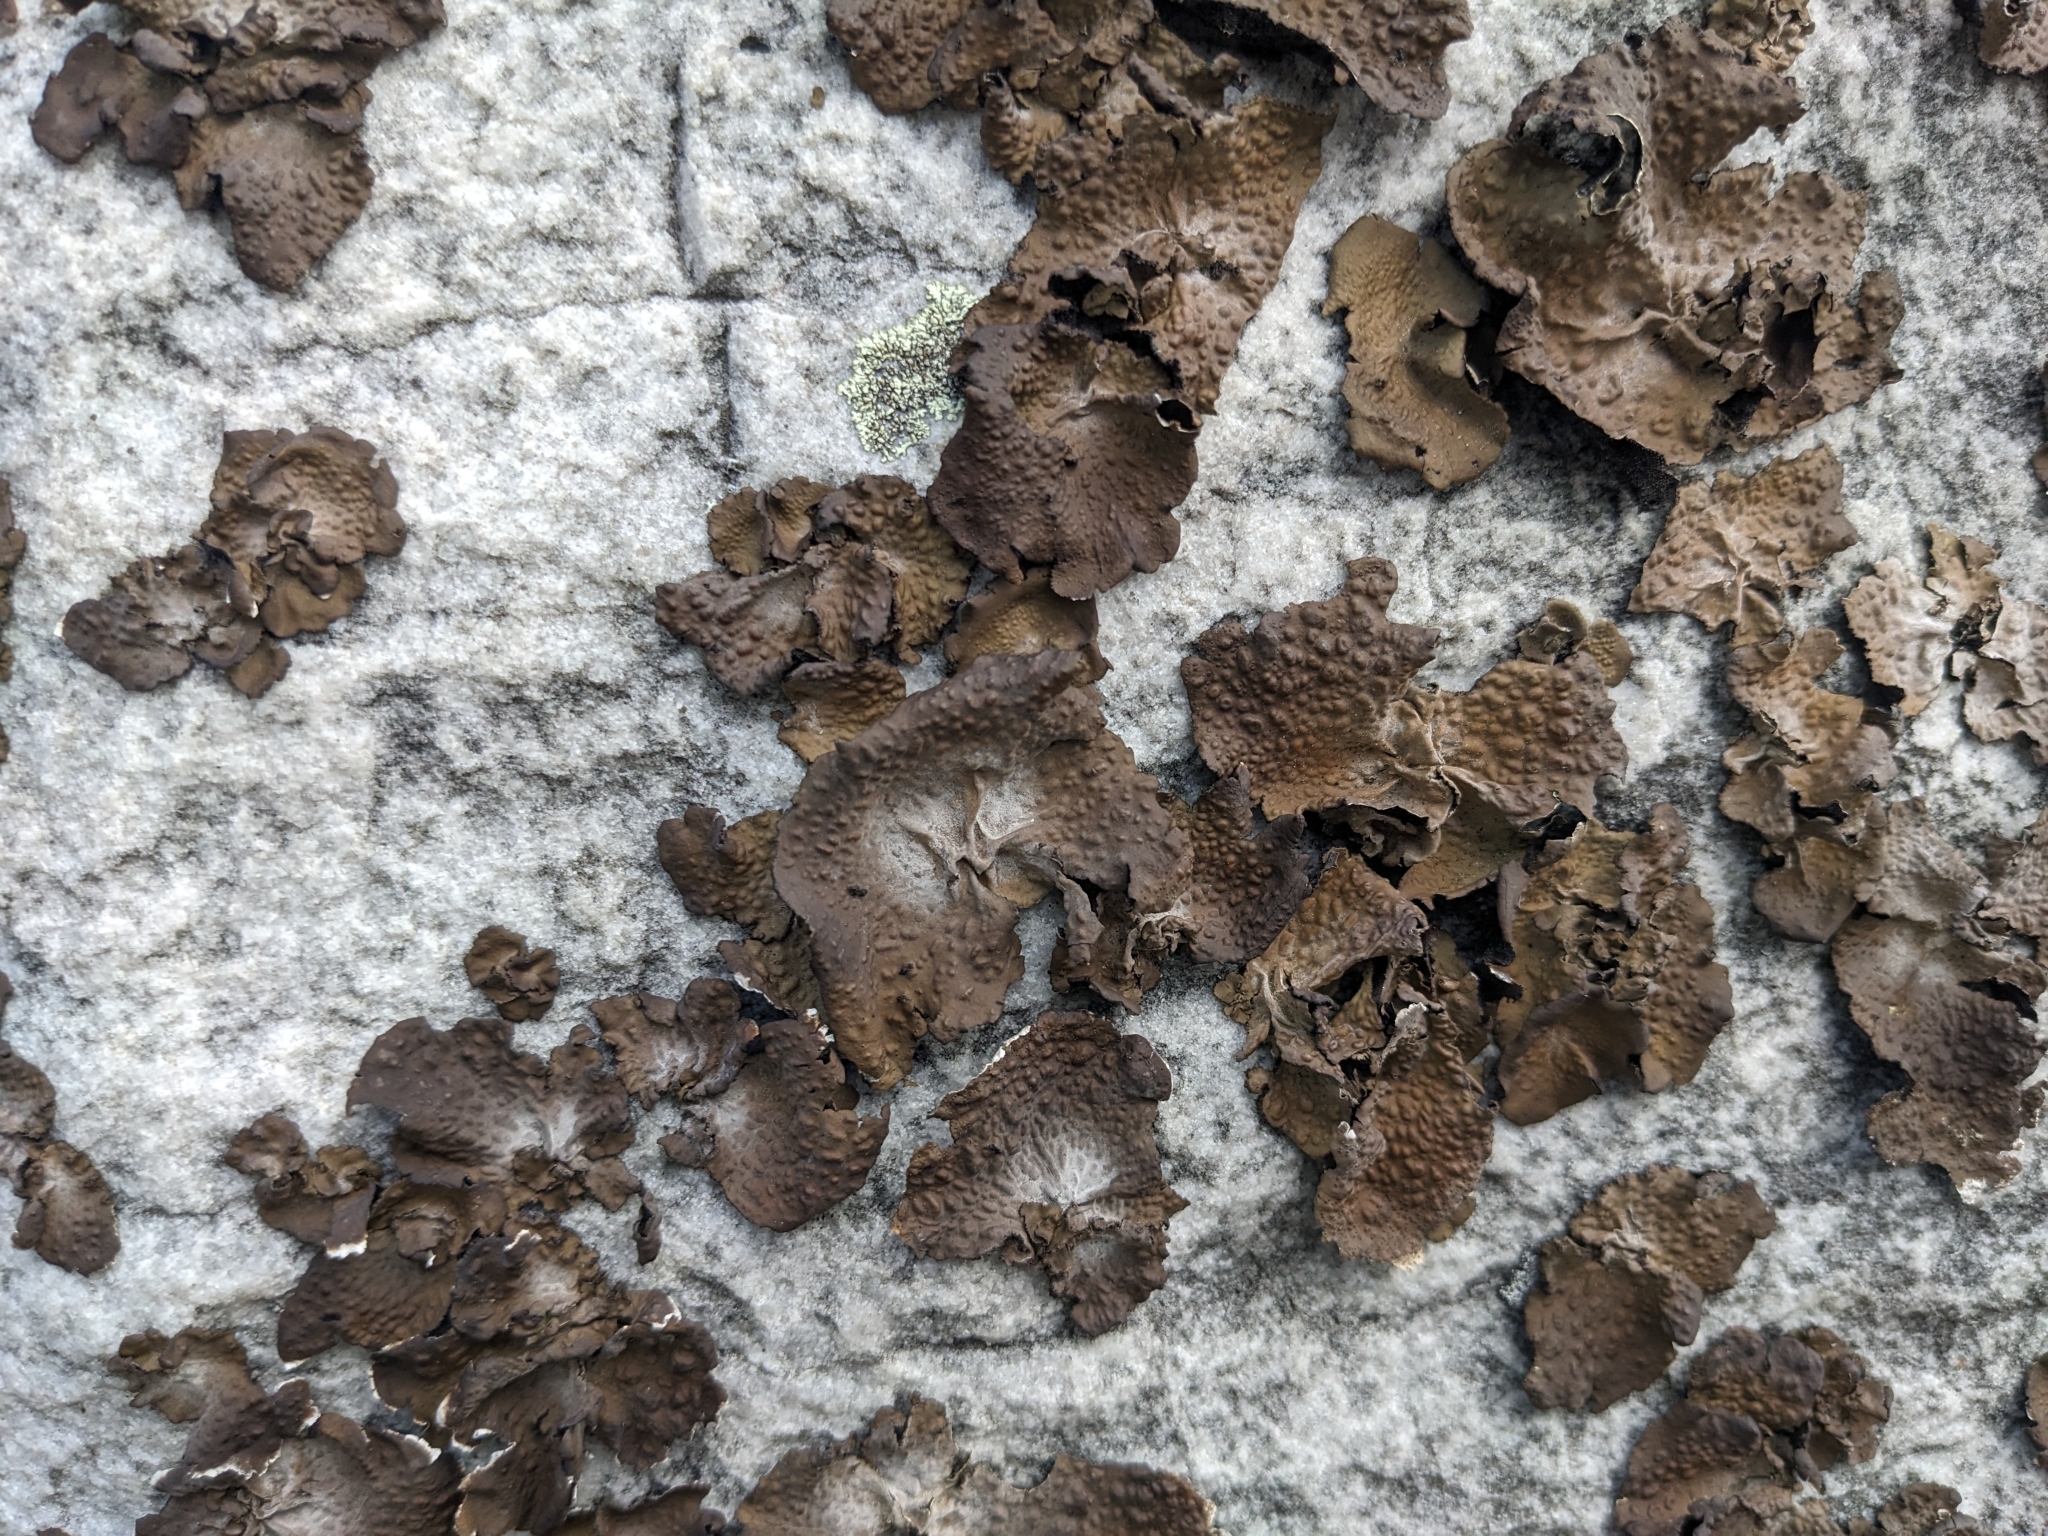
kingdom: Fungi
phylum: Ascomycota
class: Lecanoromycetes
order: Umbilicariales
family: Umbilicariaceae
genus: Lasallia
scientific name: Lasallia pensylvanica
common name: Blackened toadskin lichen
